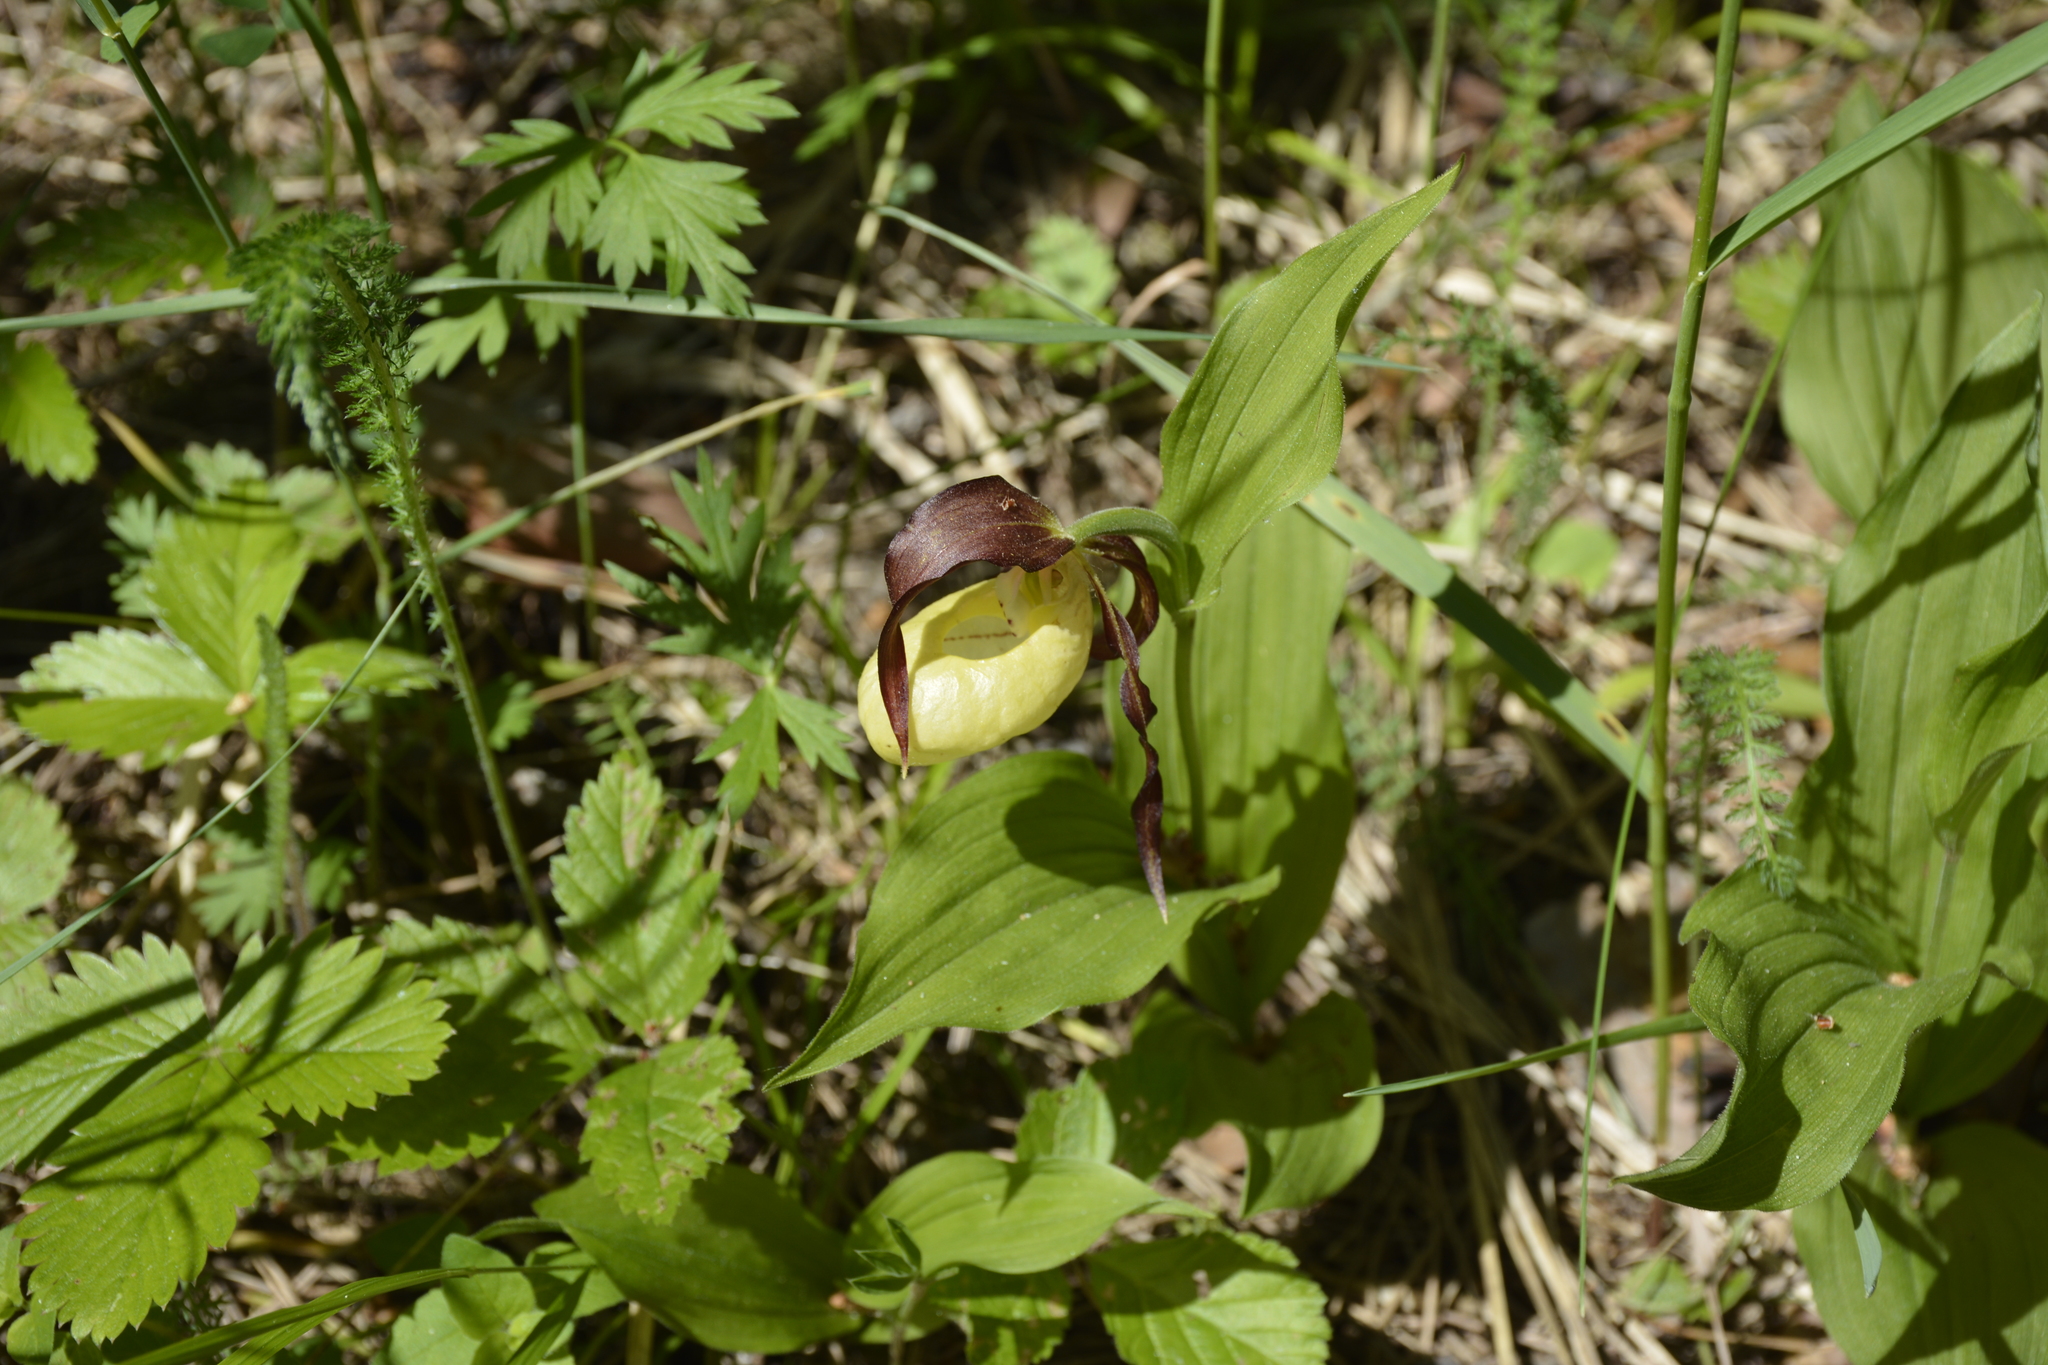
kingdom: Plantae
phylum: Tracheophyta
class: Liliopsida
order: Asparagales
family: Orchidaceae
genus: Cypripedium
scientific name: Cypripedium calceolus
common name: Lady's-slipper
